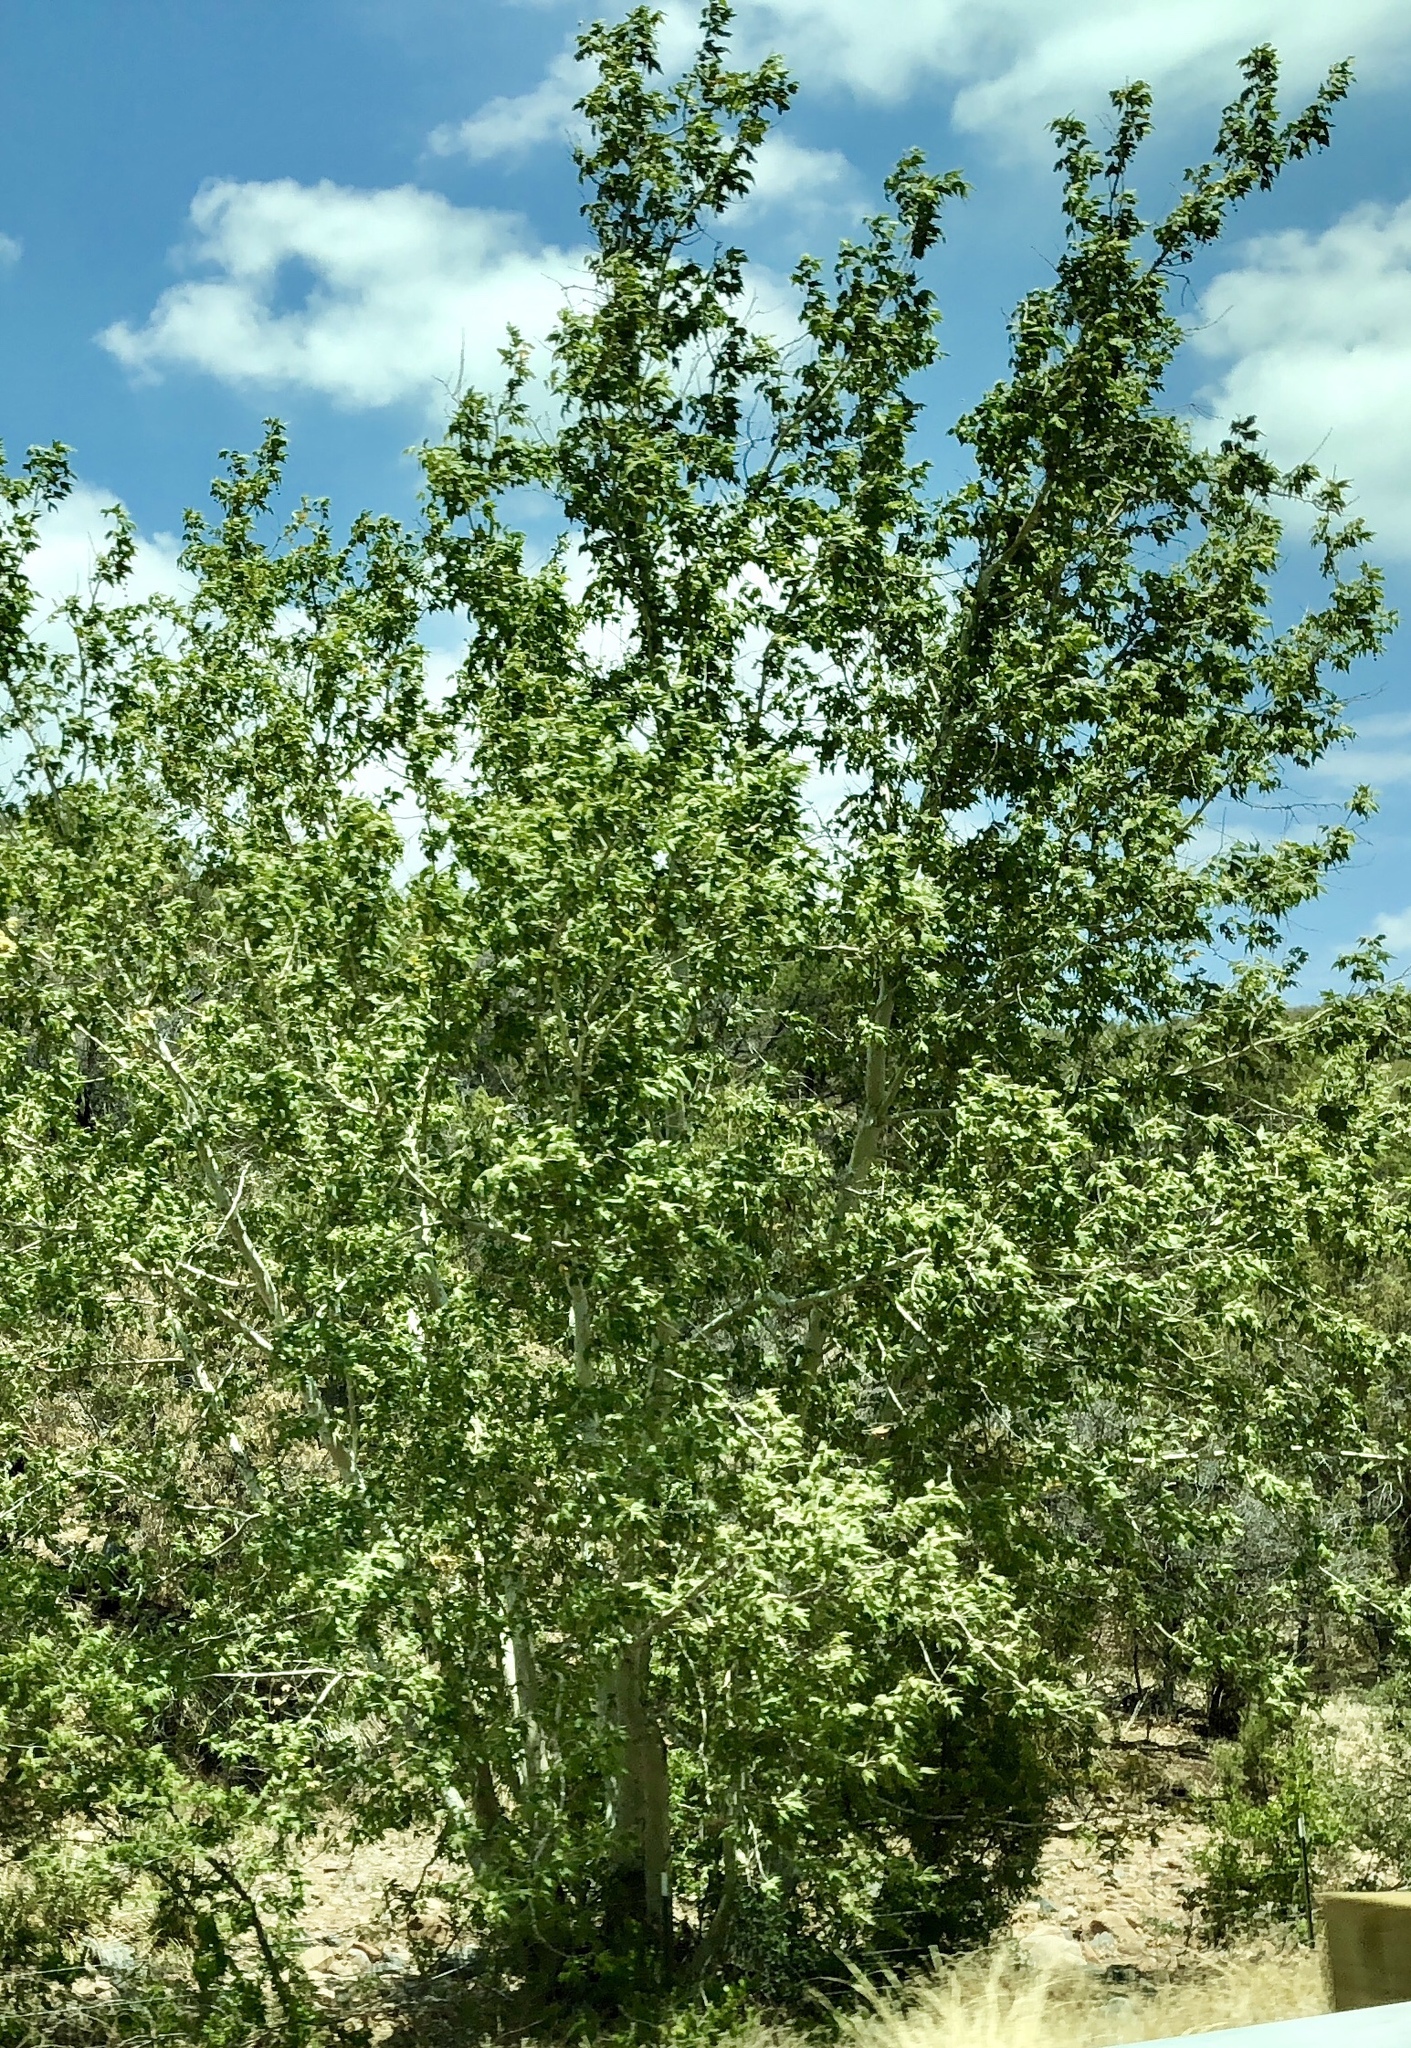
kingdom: Plantae
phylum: Tracheophyta
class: Magnoliopsida
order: Proteales
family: Platanaceae
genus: Platanus
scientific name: Platanus wrightii
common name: Arizona sycamore
